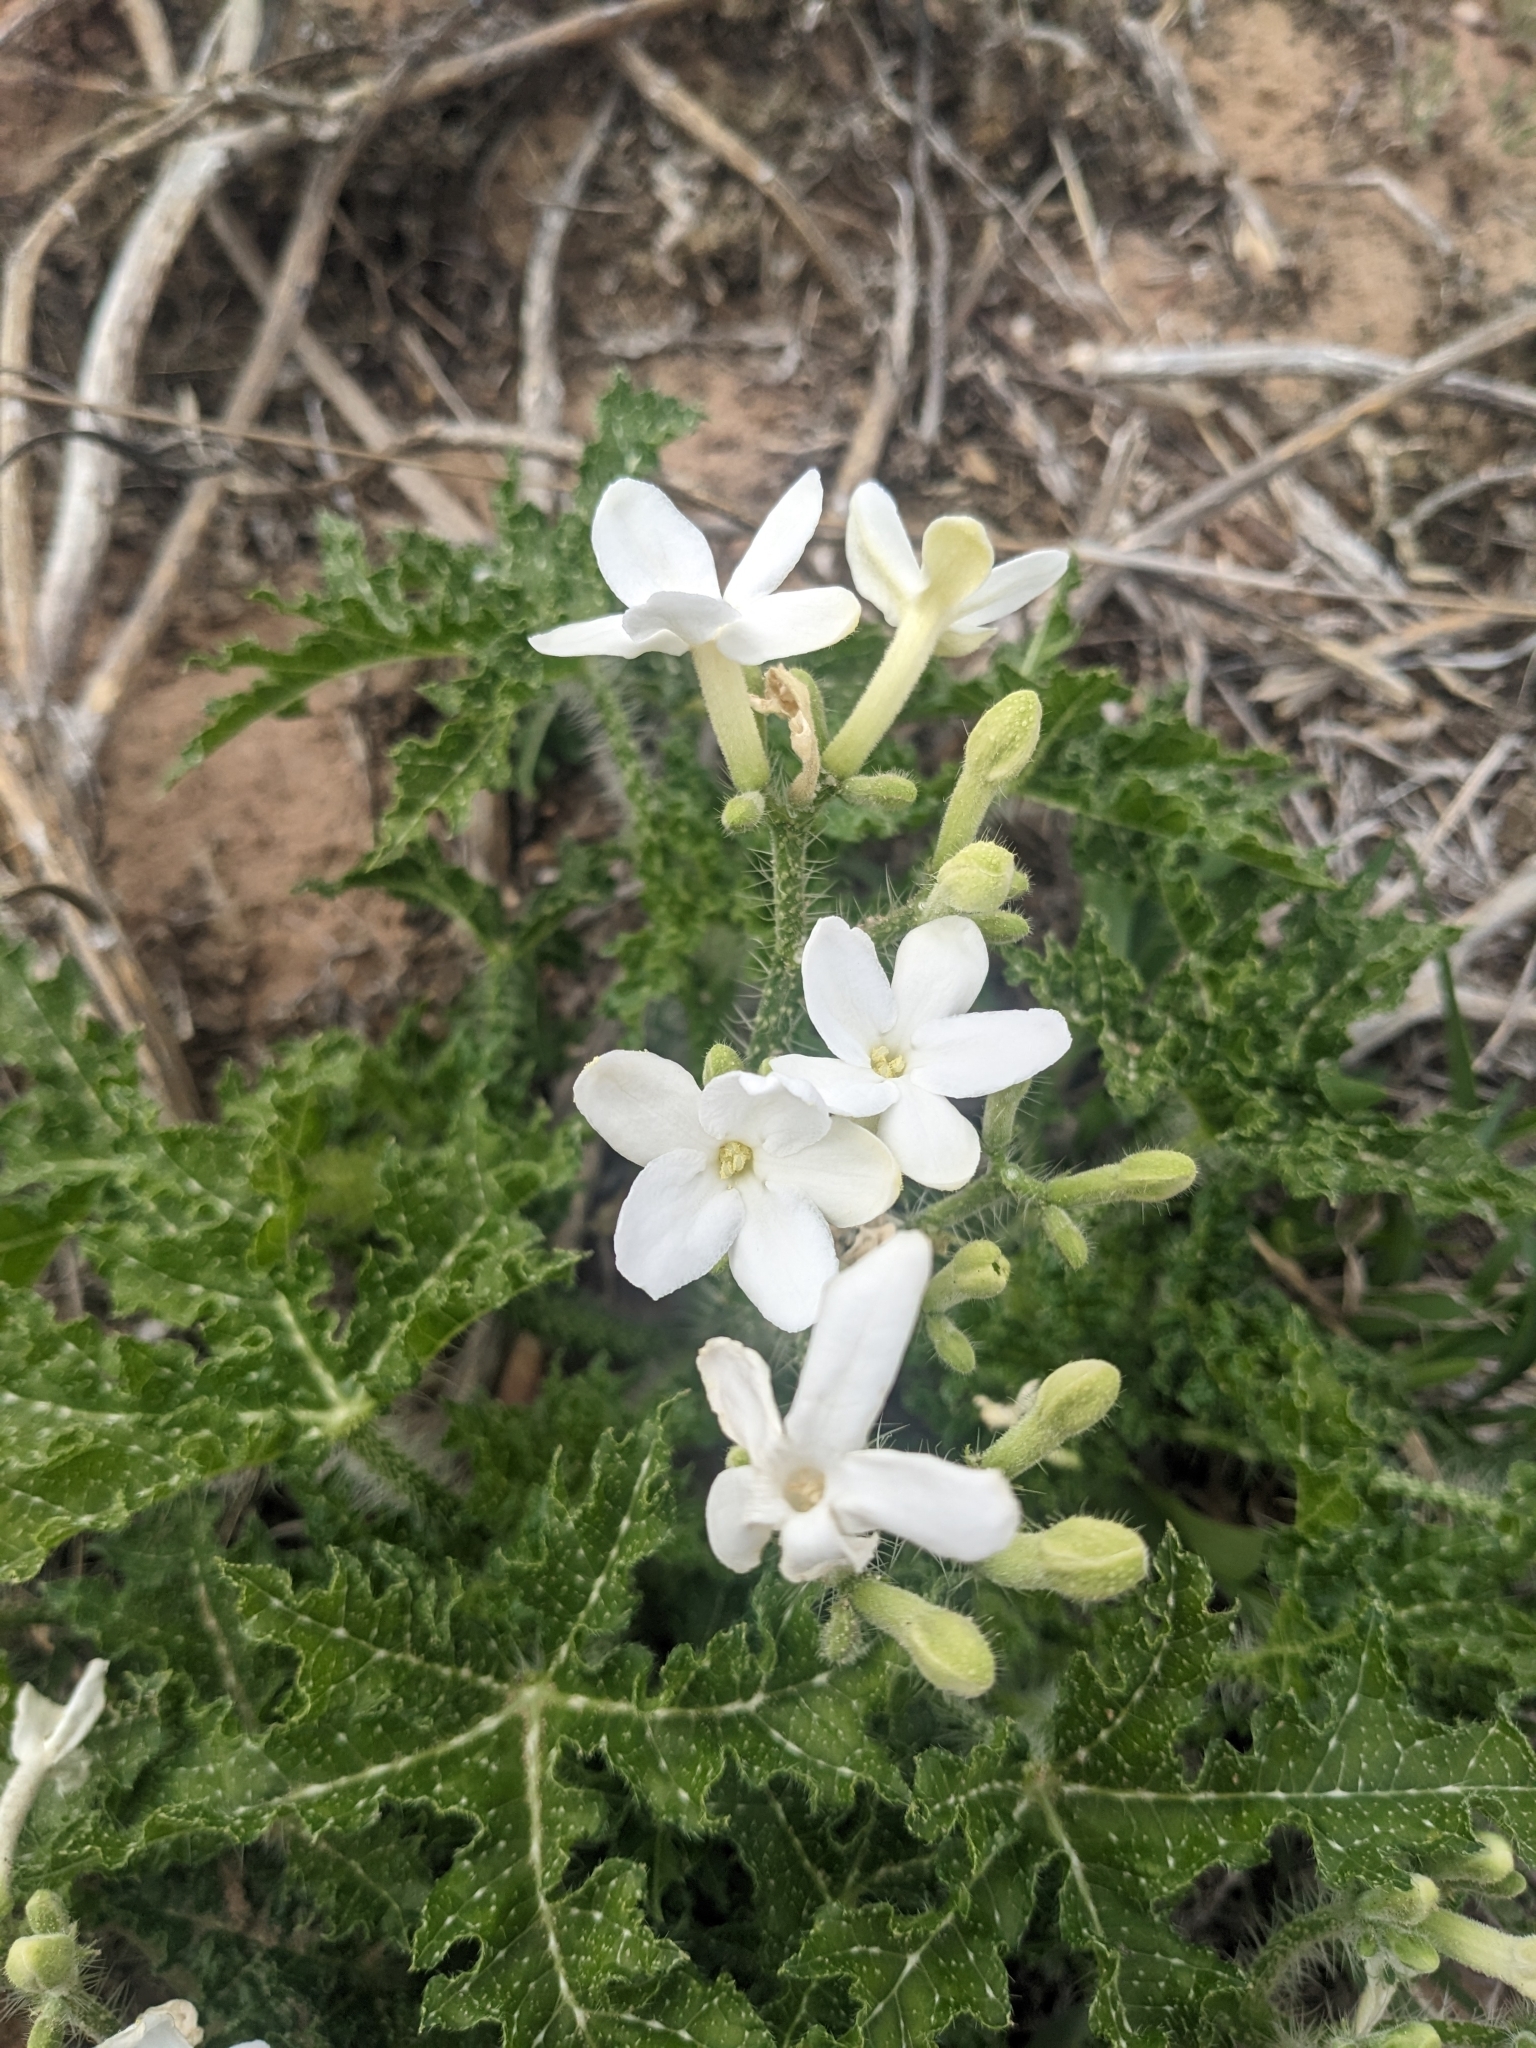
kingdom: Plantae
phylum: Tracheophyta
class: Magnoliopsida
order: Malpighiales
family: Euphorbiaceae
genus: Cnidoscolus
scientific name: Cnidoscolus texanus
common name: Texas bull-nettle
